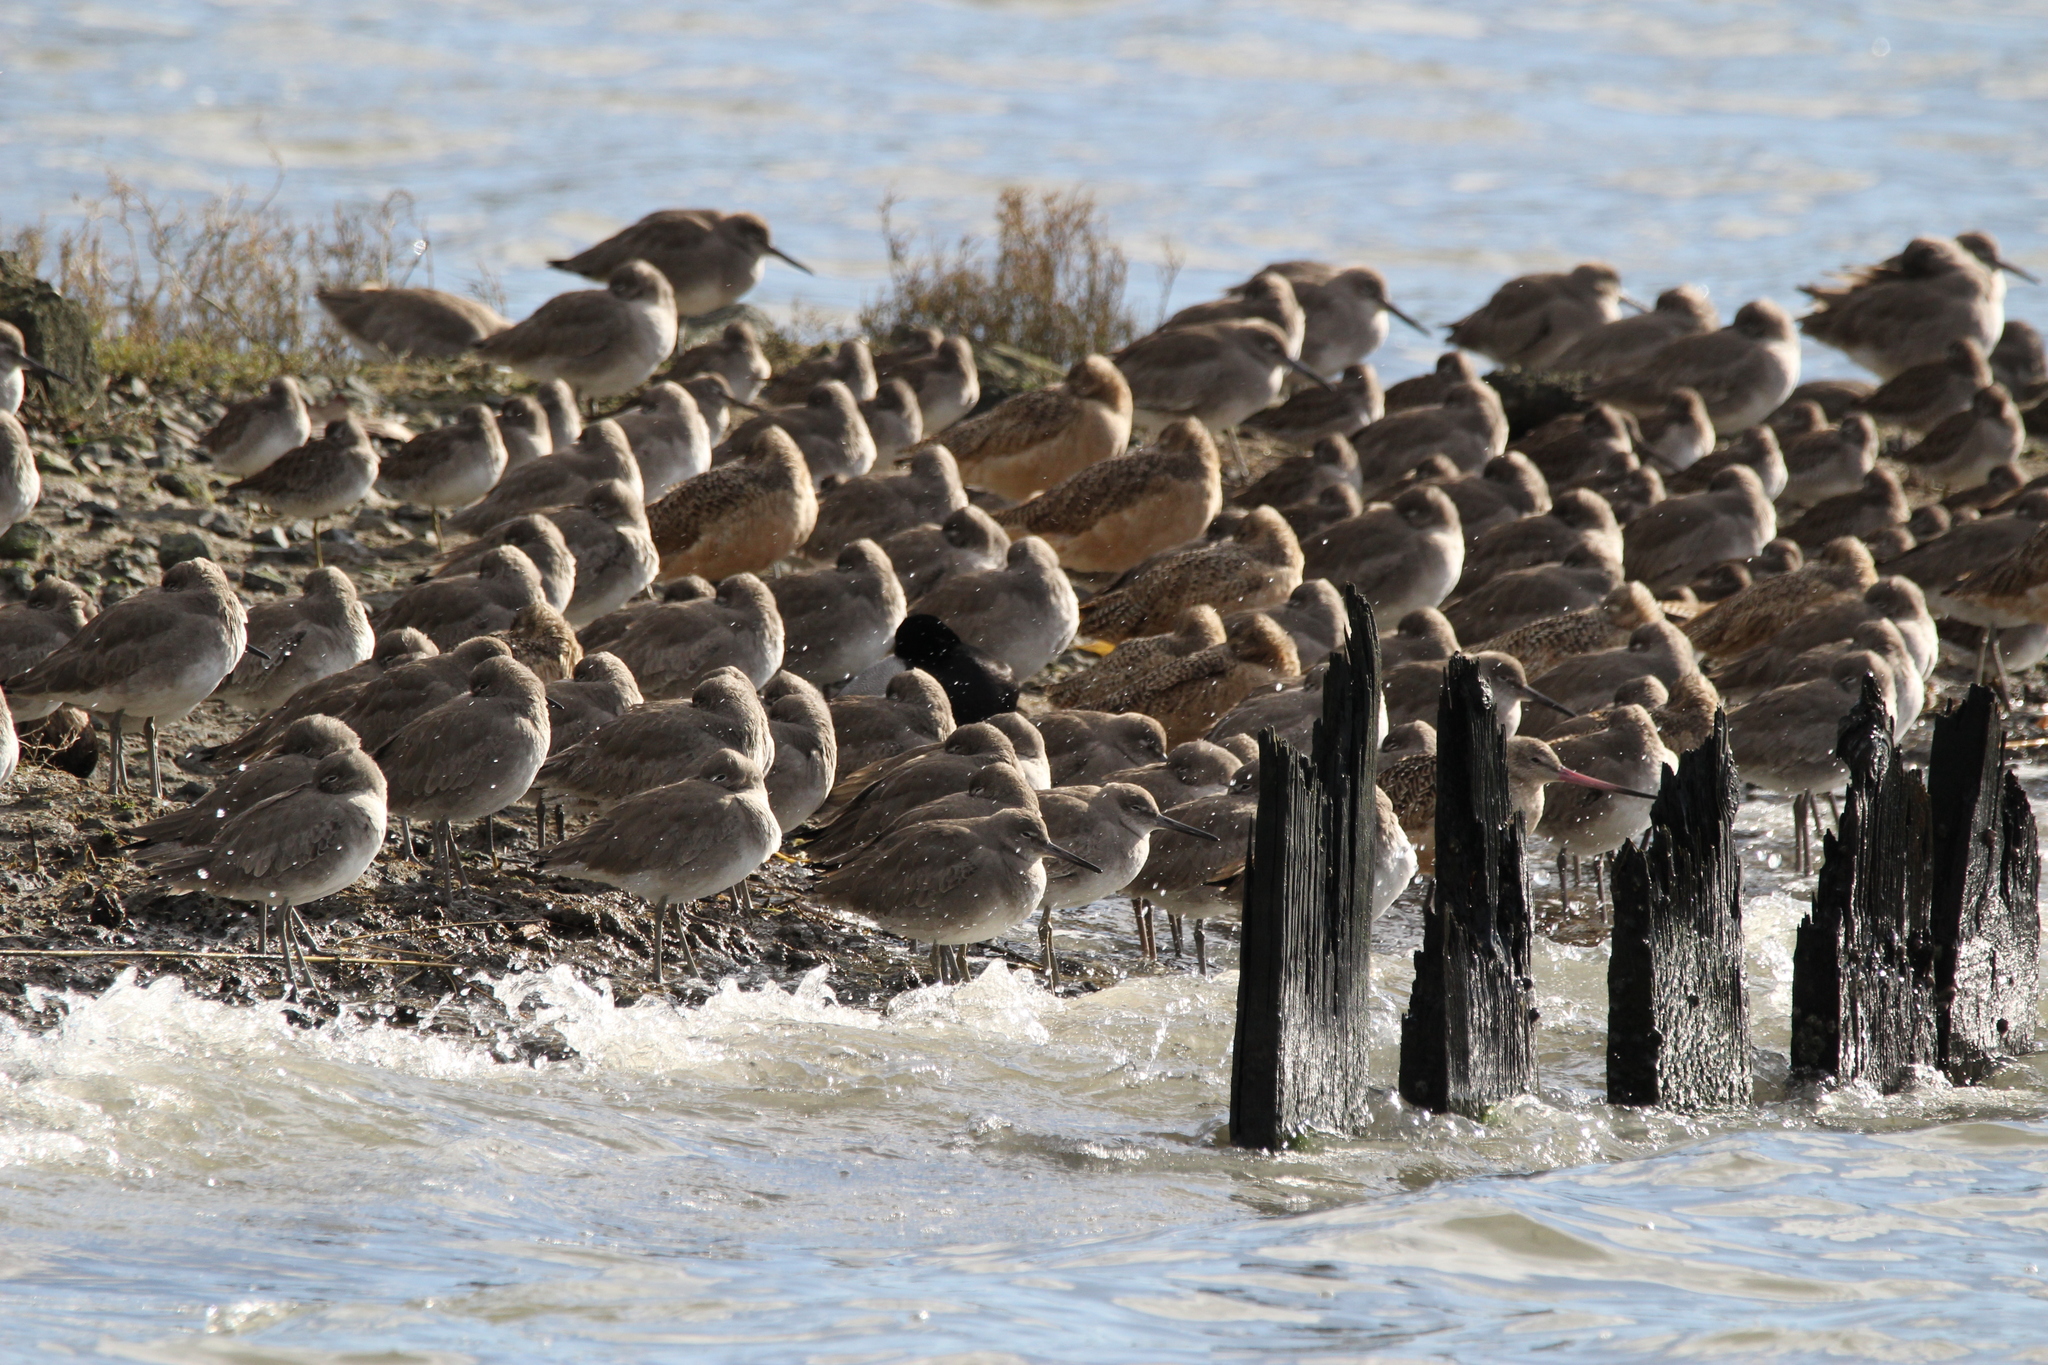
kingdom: Animalia
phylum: Chordata
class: Aves
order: Charadriiformes
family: Scolopacidae
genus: Tringa
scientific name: Tringa semipalmata
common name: Willet
